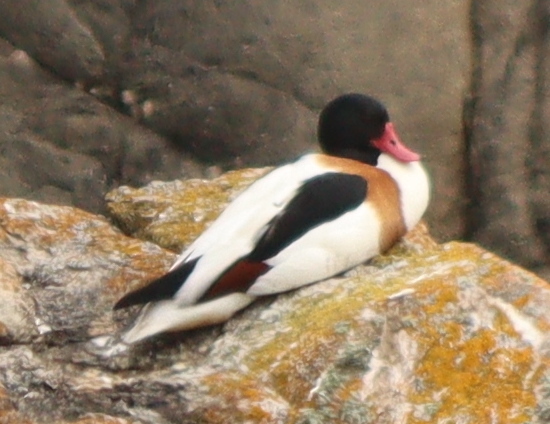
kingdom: Animalia
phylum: Chordata
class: Aves
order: Anseriformes
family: Anatidae
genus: Tadorna
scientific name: Tadorna tadorna
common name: Common shelduck
